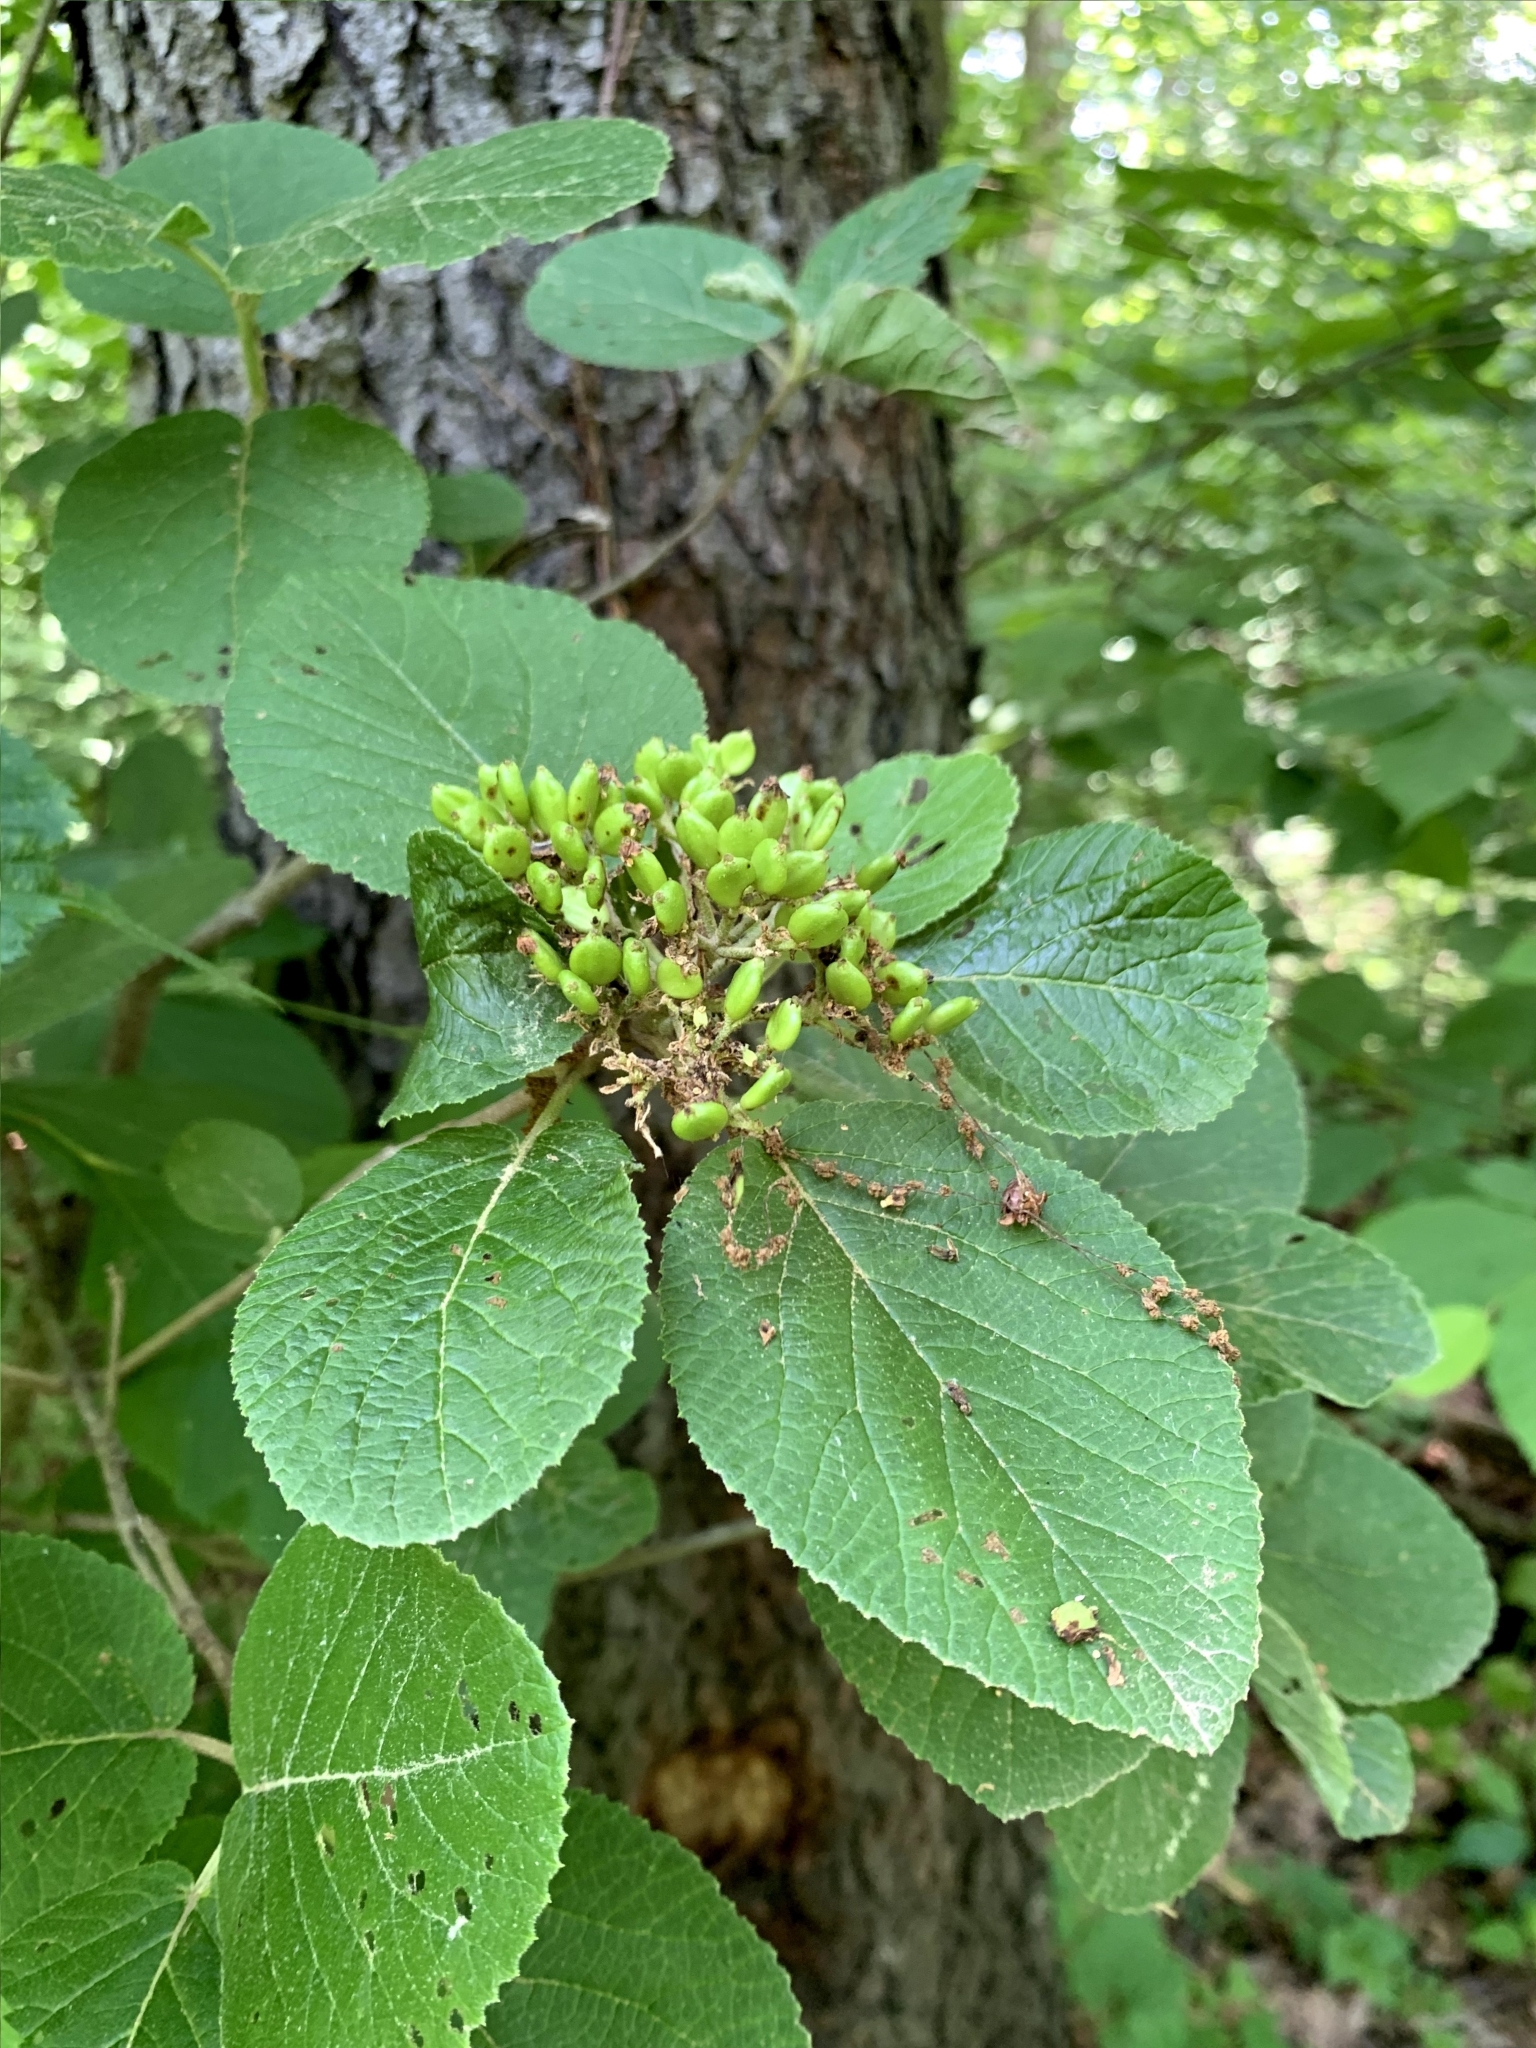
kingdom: Plantae
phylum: Tracheophyta
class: Magnoliopsida
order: Dipsacales
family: Viburnaceae
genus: Viburnum
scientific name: Viburnum lantana
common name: Wayfaring tree
